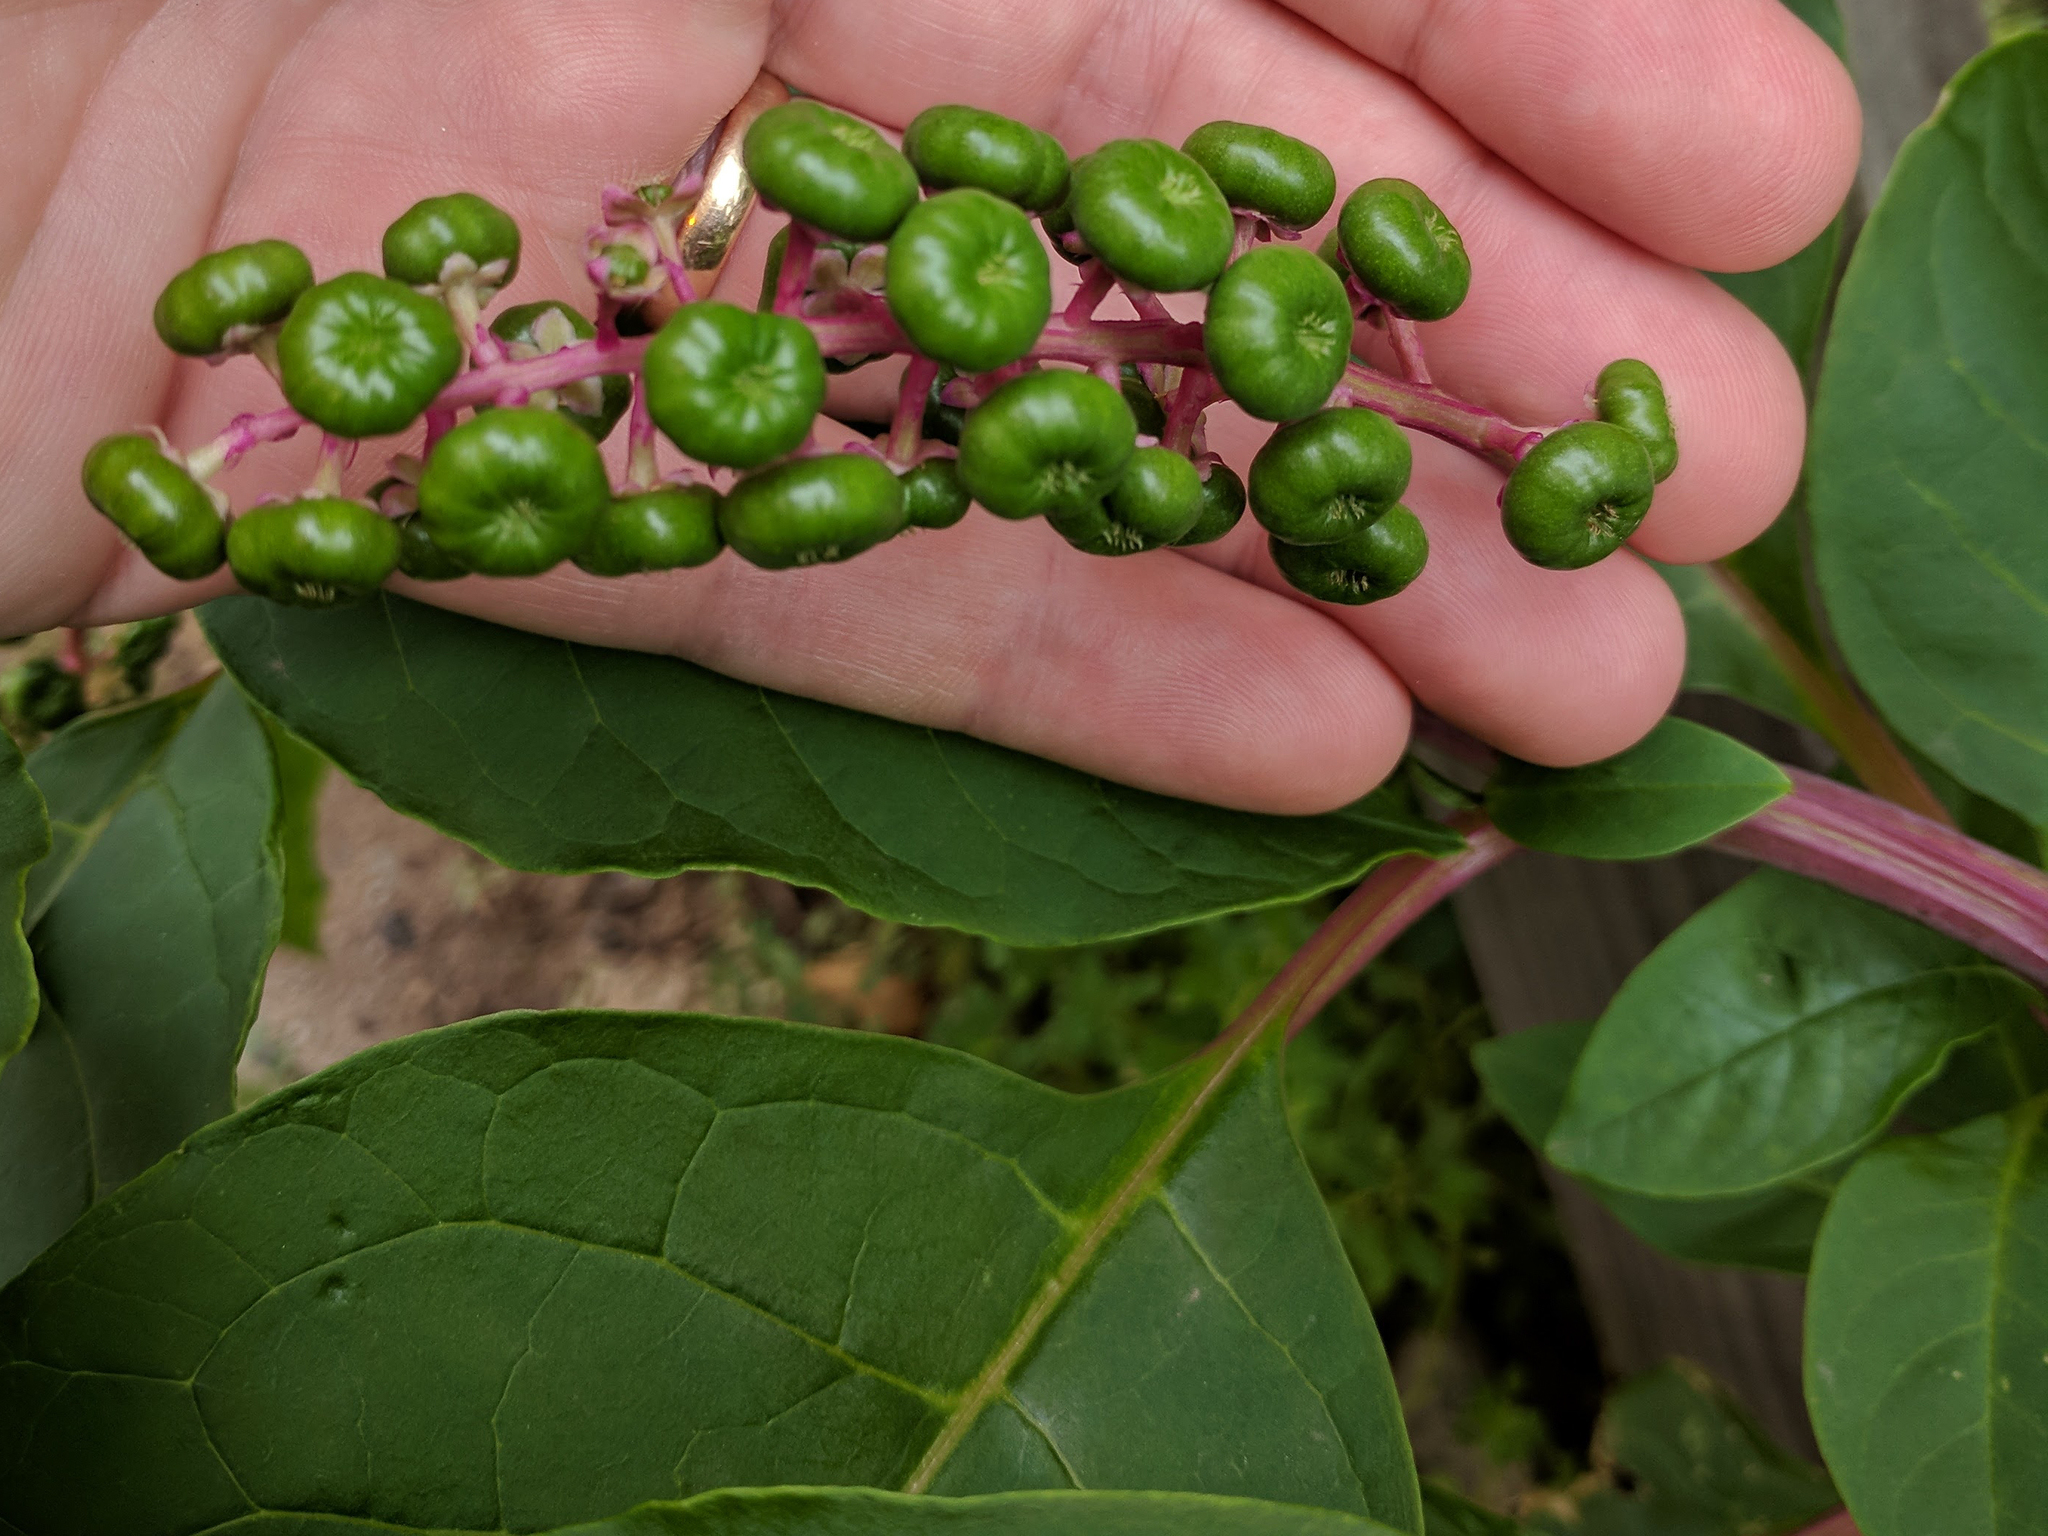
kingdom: Plantae
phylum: Tracheophyta
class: Magnoliopsida
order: Caryophyllales
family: Phytolaccaceae
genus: Phytolacca
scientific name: Phytolacca americana
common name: American pokeweed
